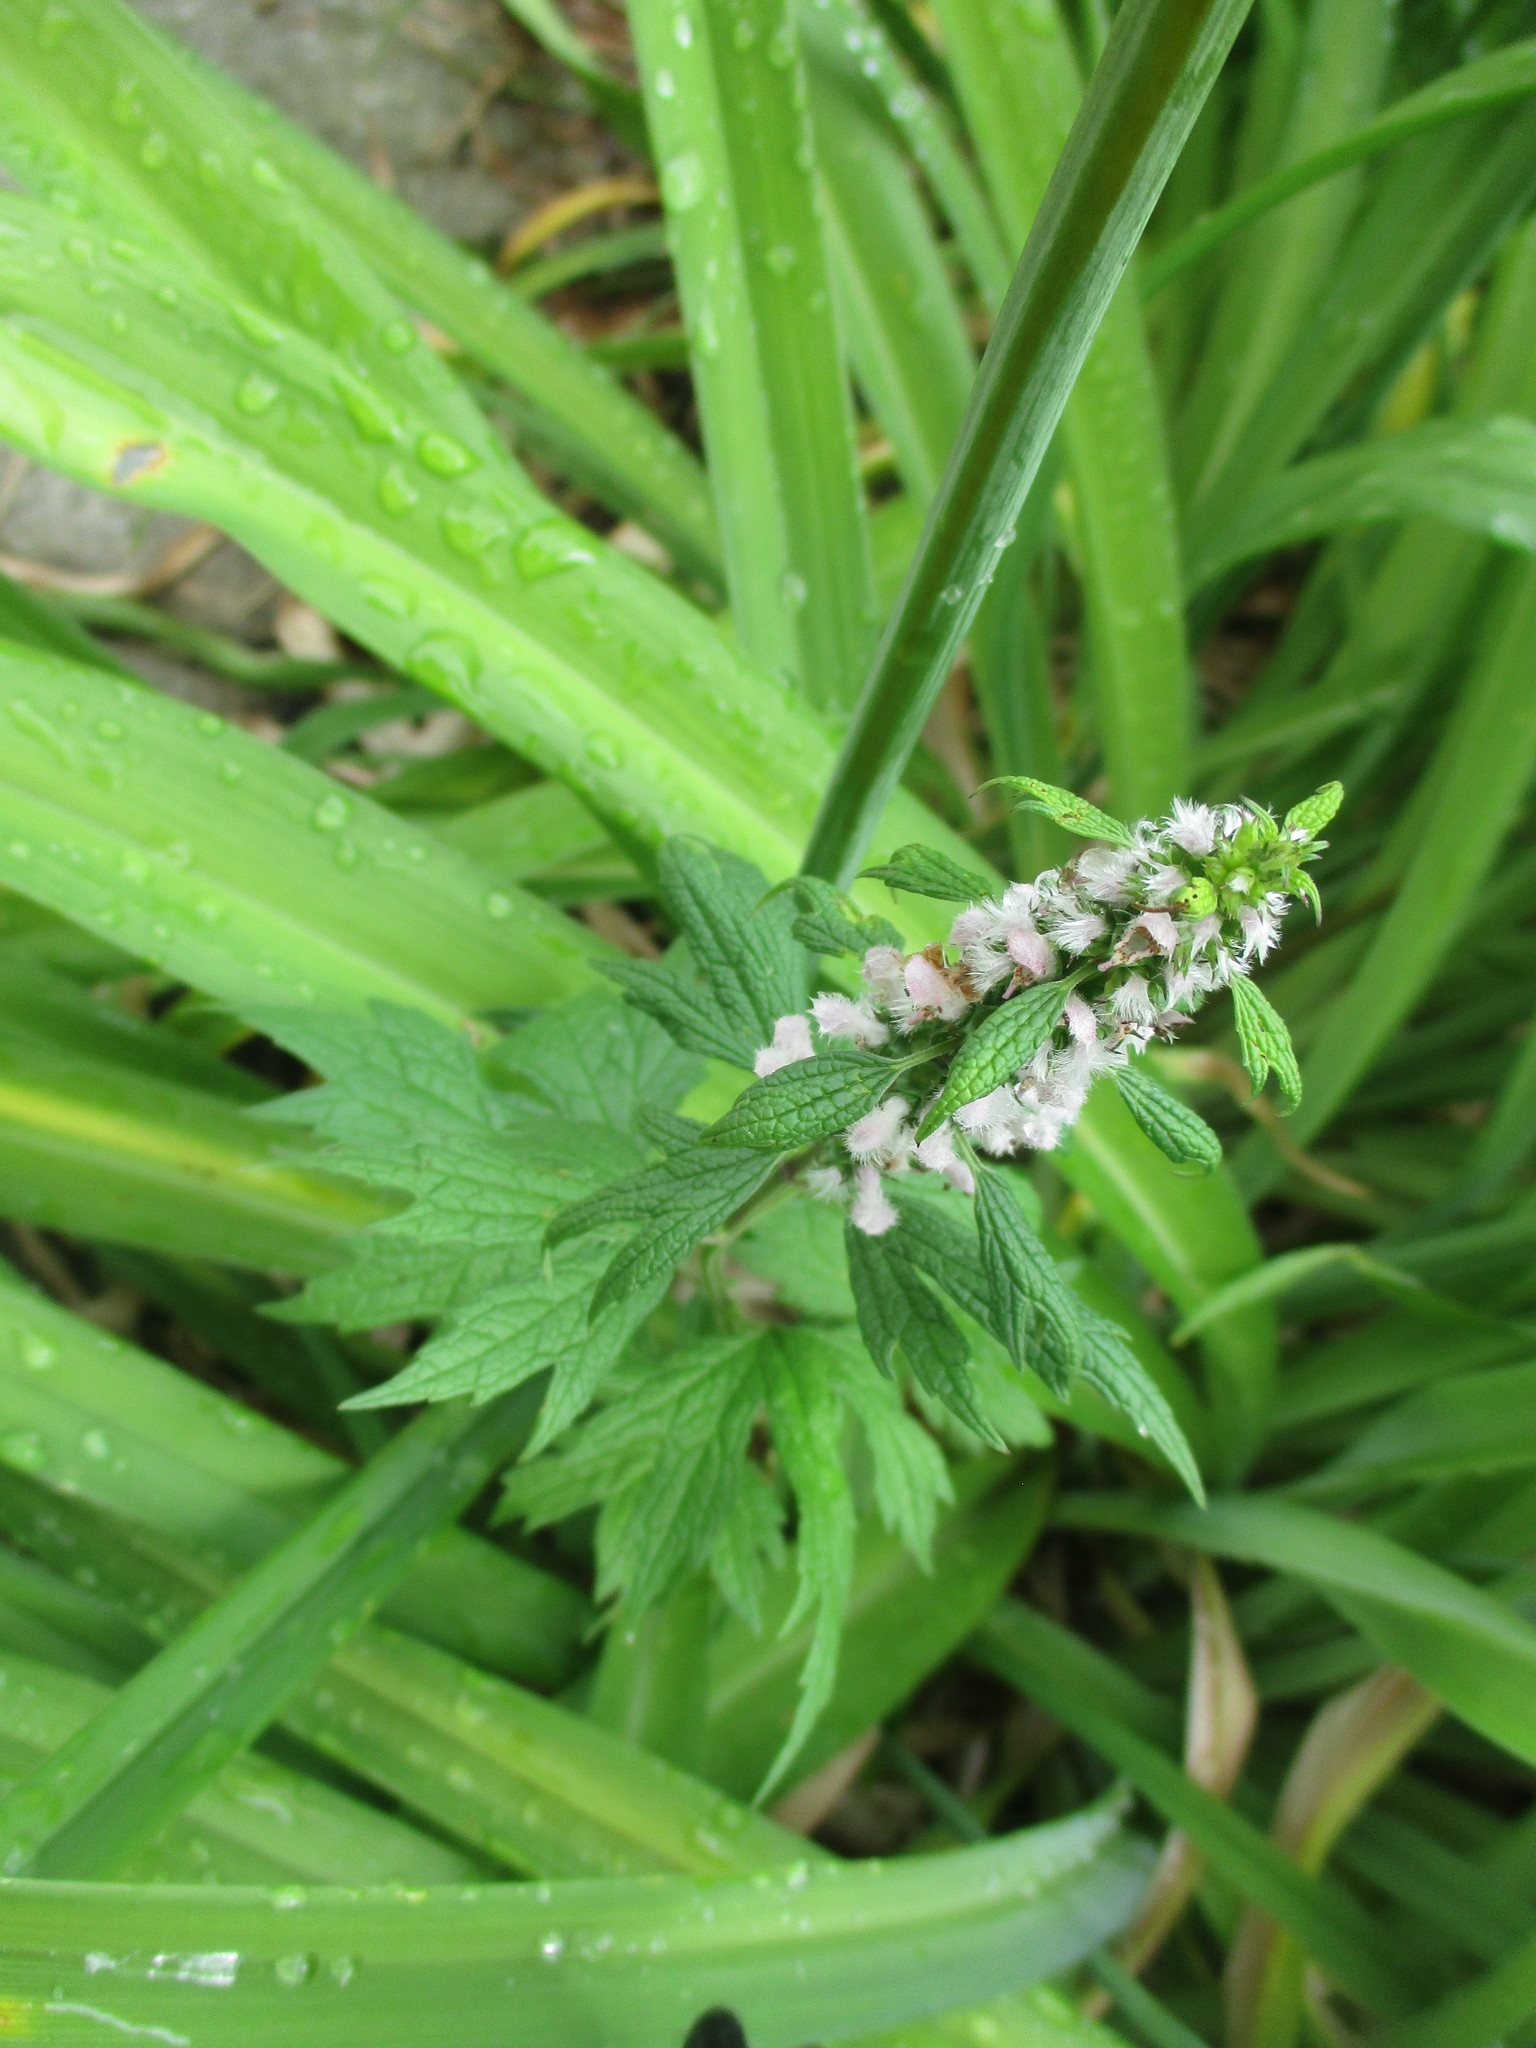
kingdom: Plantae
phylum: Tracheophyta
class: Magnoliopsida
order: Lamiales
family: Lamiaceae
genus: Leonurus
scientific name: Leonurus cardiaca
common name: Motherwort
